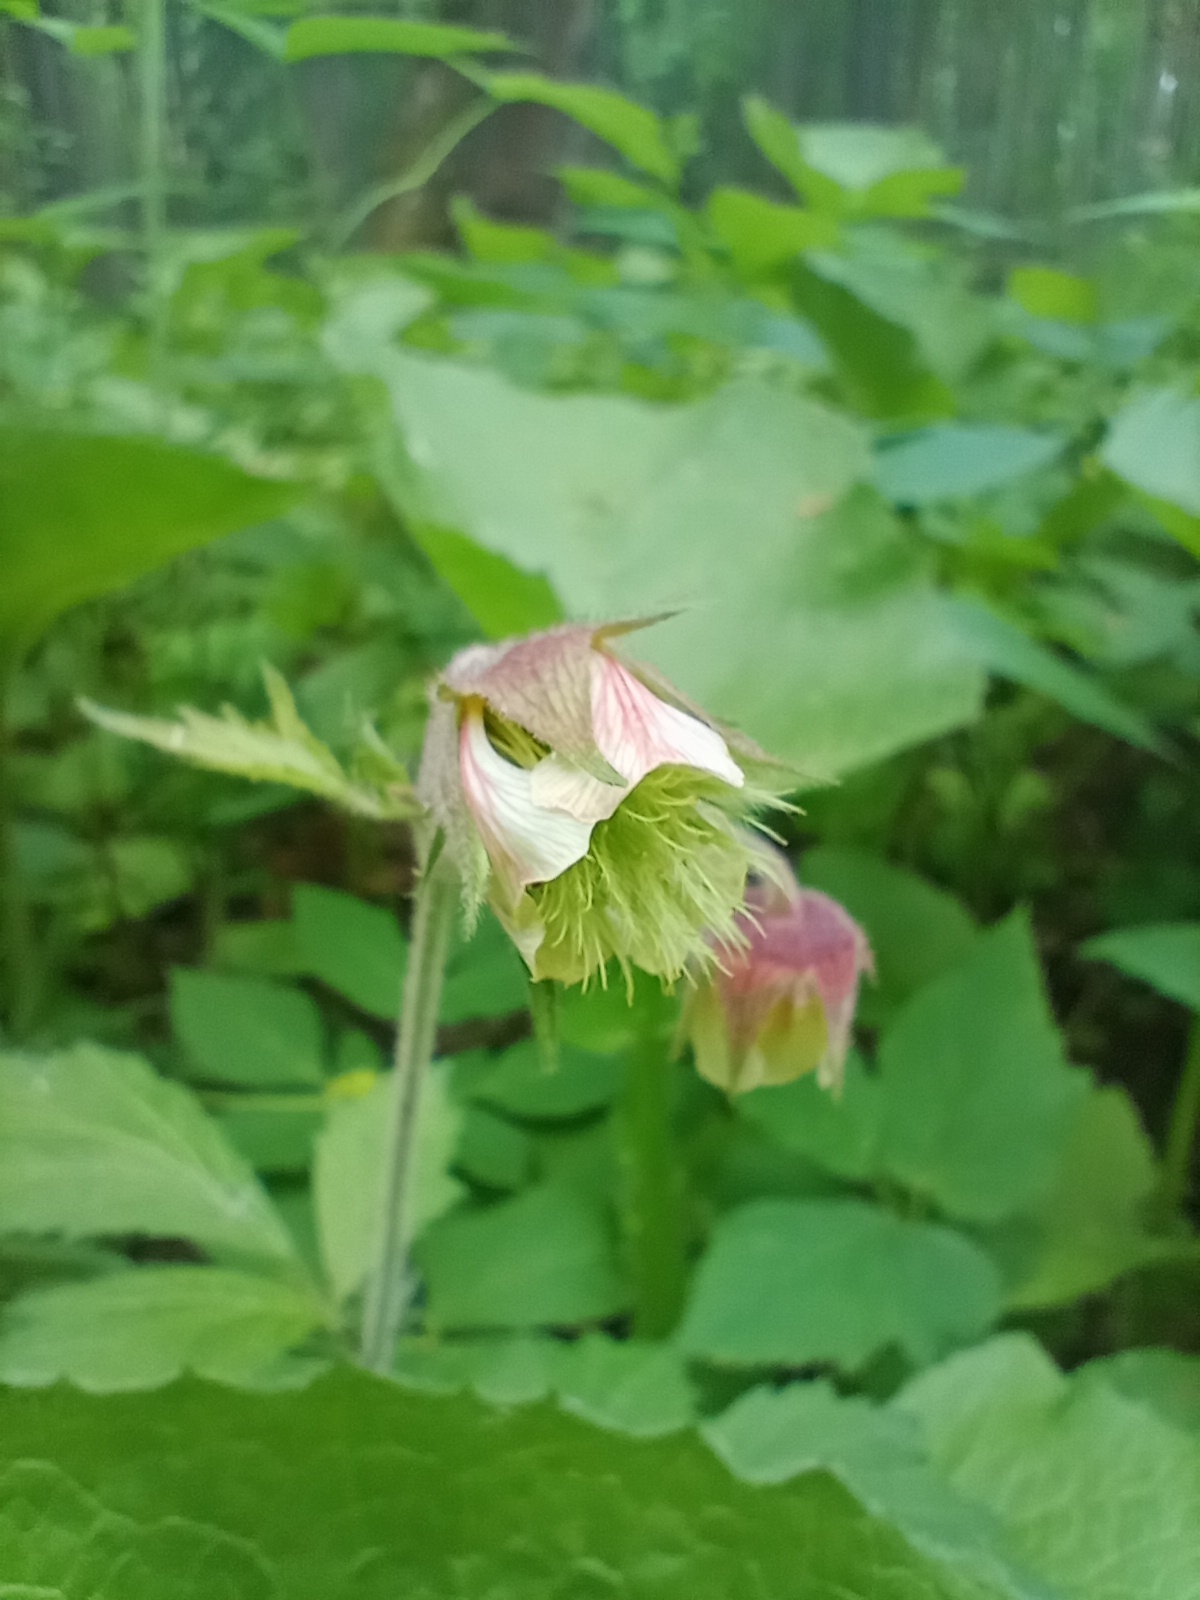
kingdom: Plantae
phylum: Tracheophyta
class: Magnoliopsida
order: Rosales
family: Rosaceae
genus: Geum
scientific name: Geum rivale
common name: Water avens
